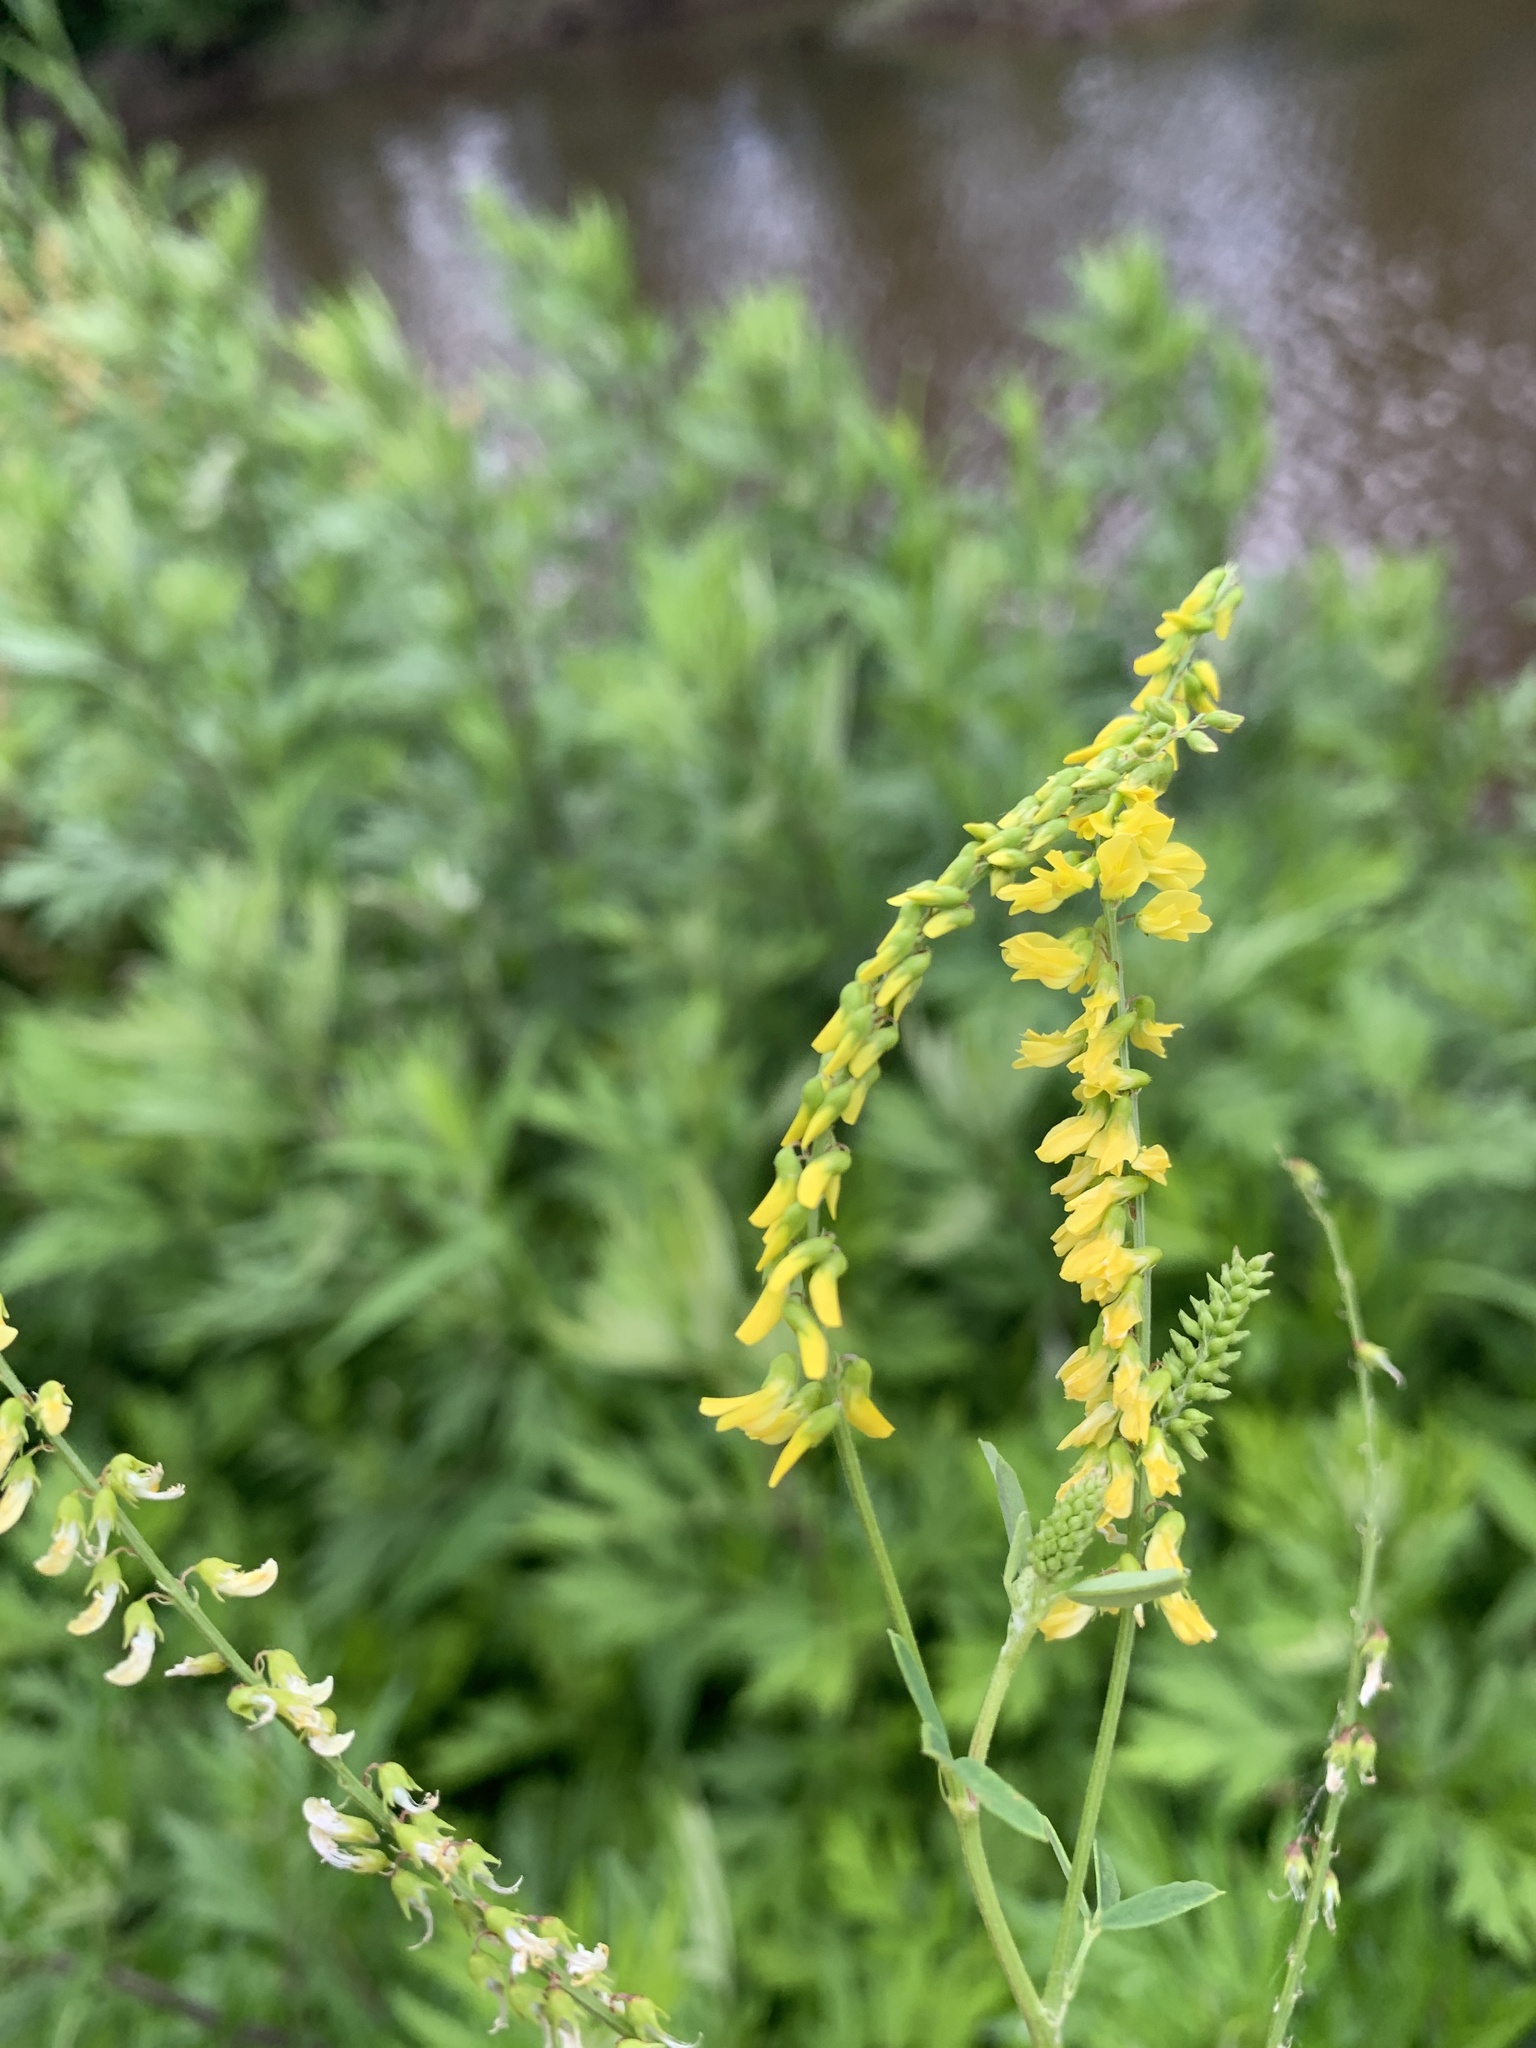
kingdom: Plantae
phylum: Tracheophyta
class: Magnoliopsida
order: Fabales
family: Fabaceae
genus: Melilotus
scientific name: Melilotus officinalis
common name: Sweetclover
